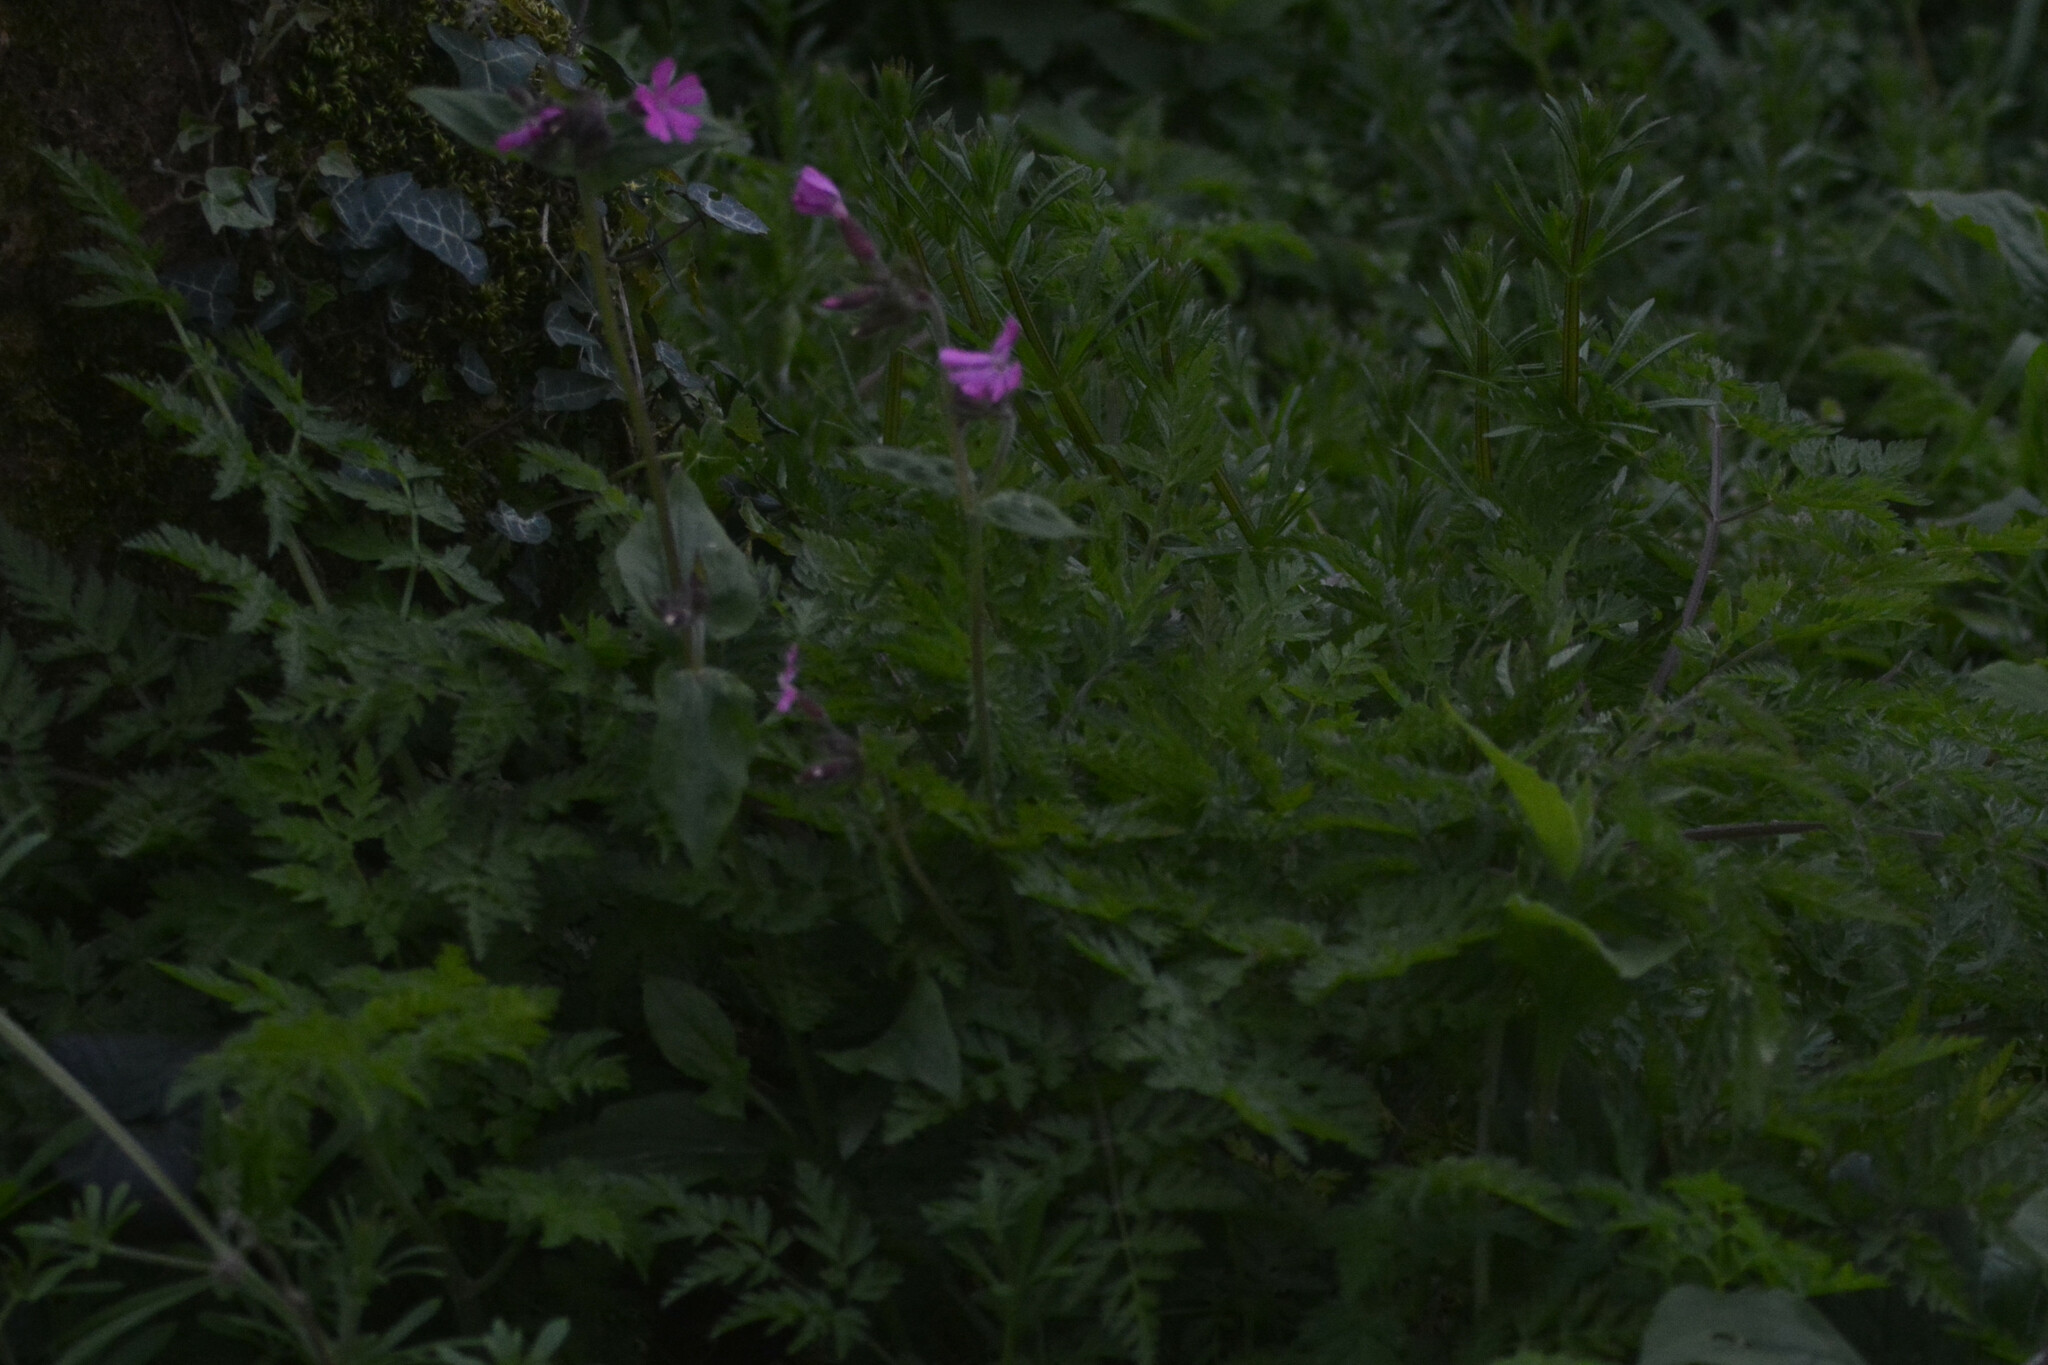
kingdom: Plantae
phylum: Tracheophyta
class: Magnoliopsida
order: Caryophyllales
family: Caryophyllaceae
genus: Silene
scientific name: Silene dioica
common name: Red campion
